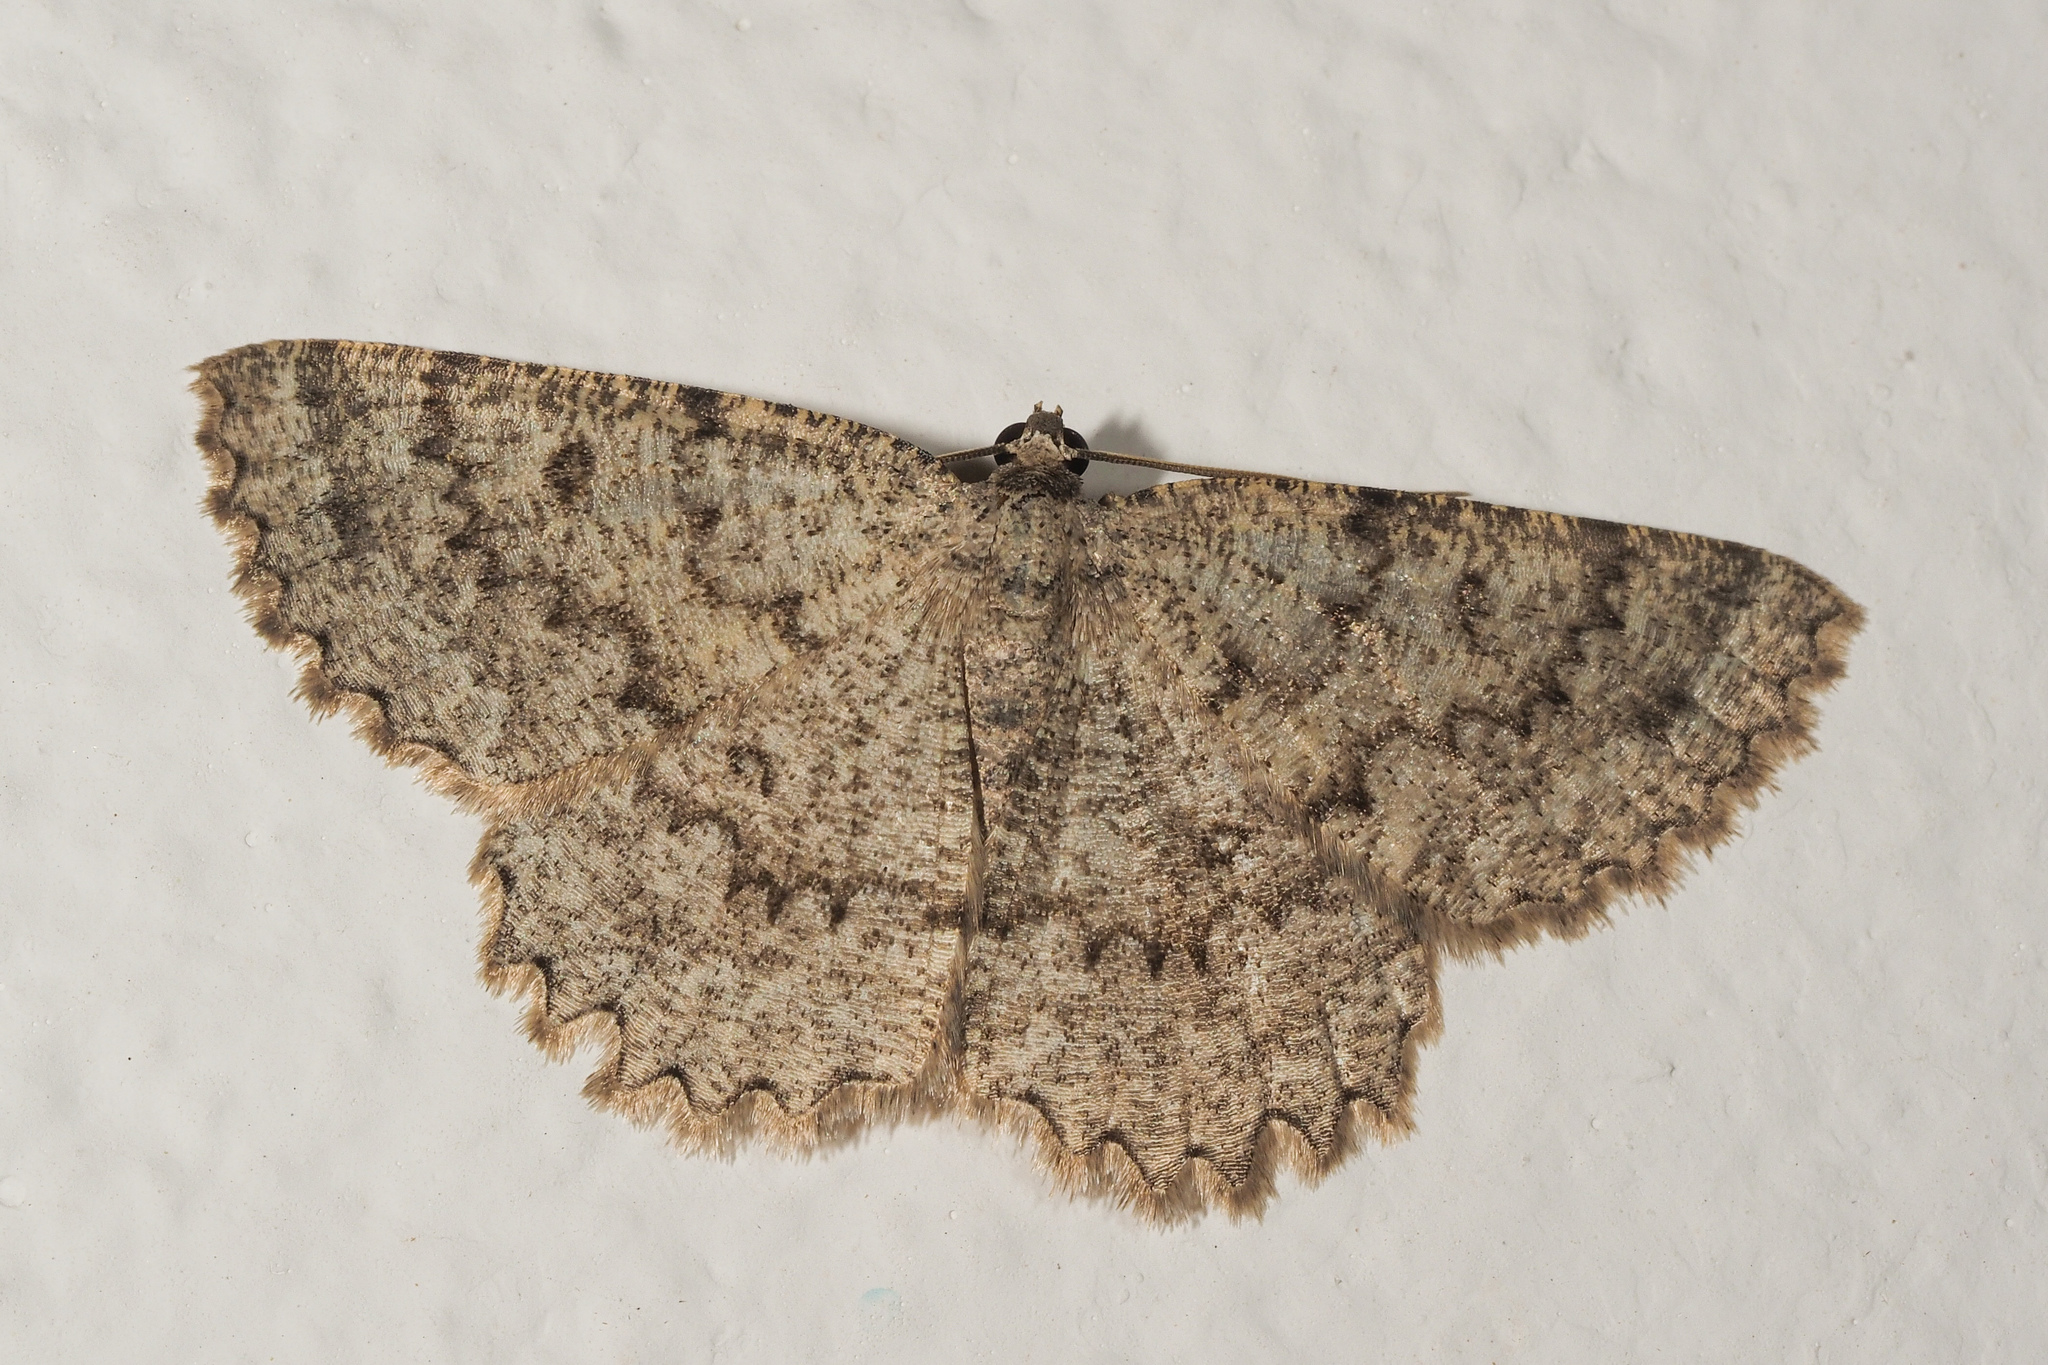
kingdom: Animalia
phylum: Arthropoda
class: Insecta
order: Lepidoptera
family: Geometridae
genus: Charissa
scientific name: Charissa obscurata
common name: Annulet
